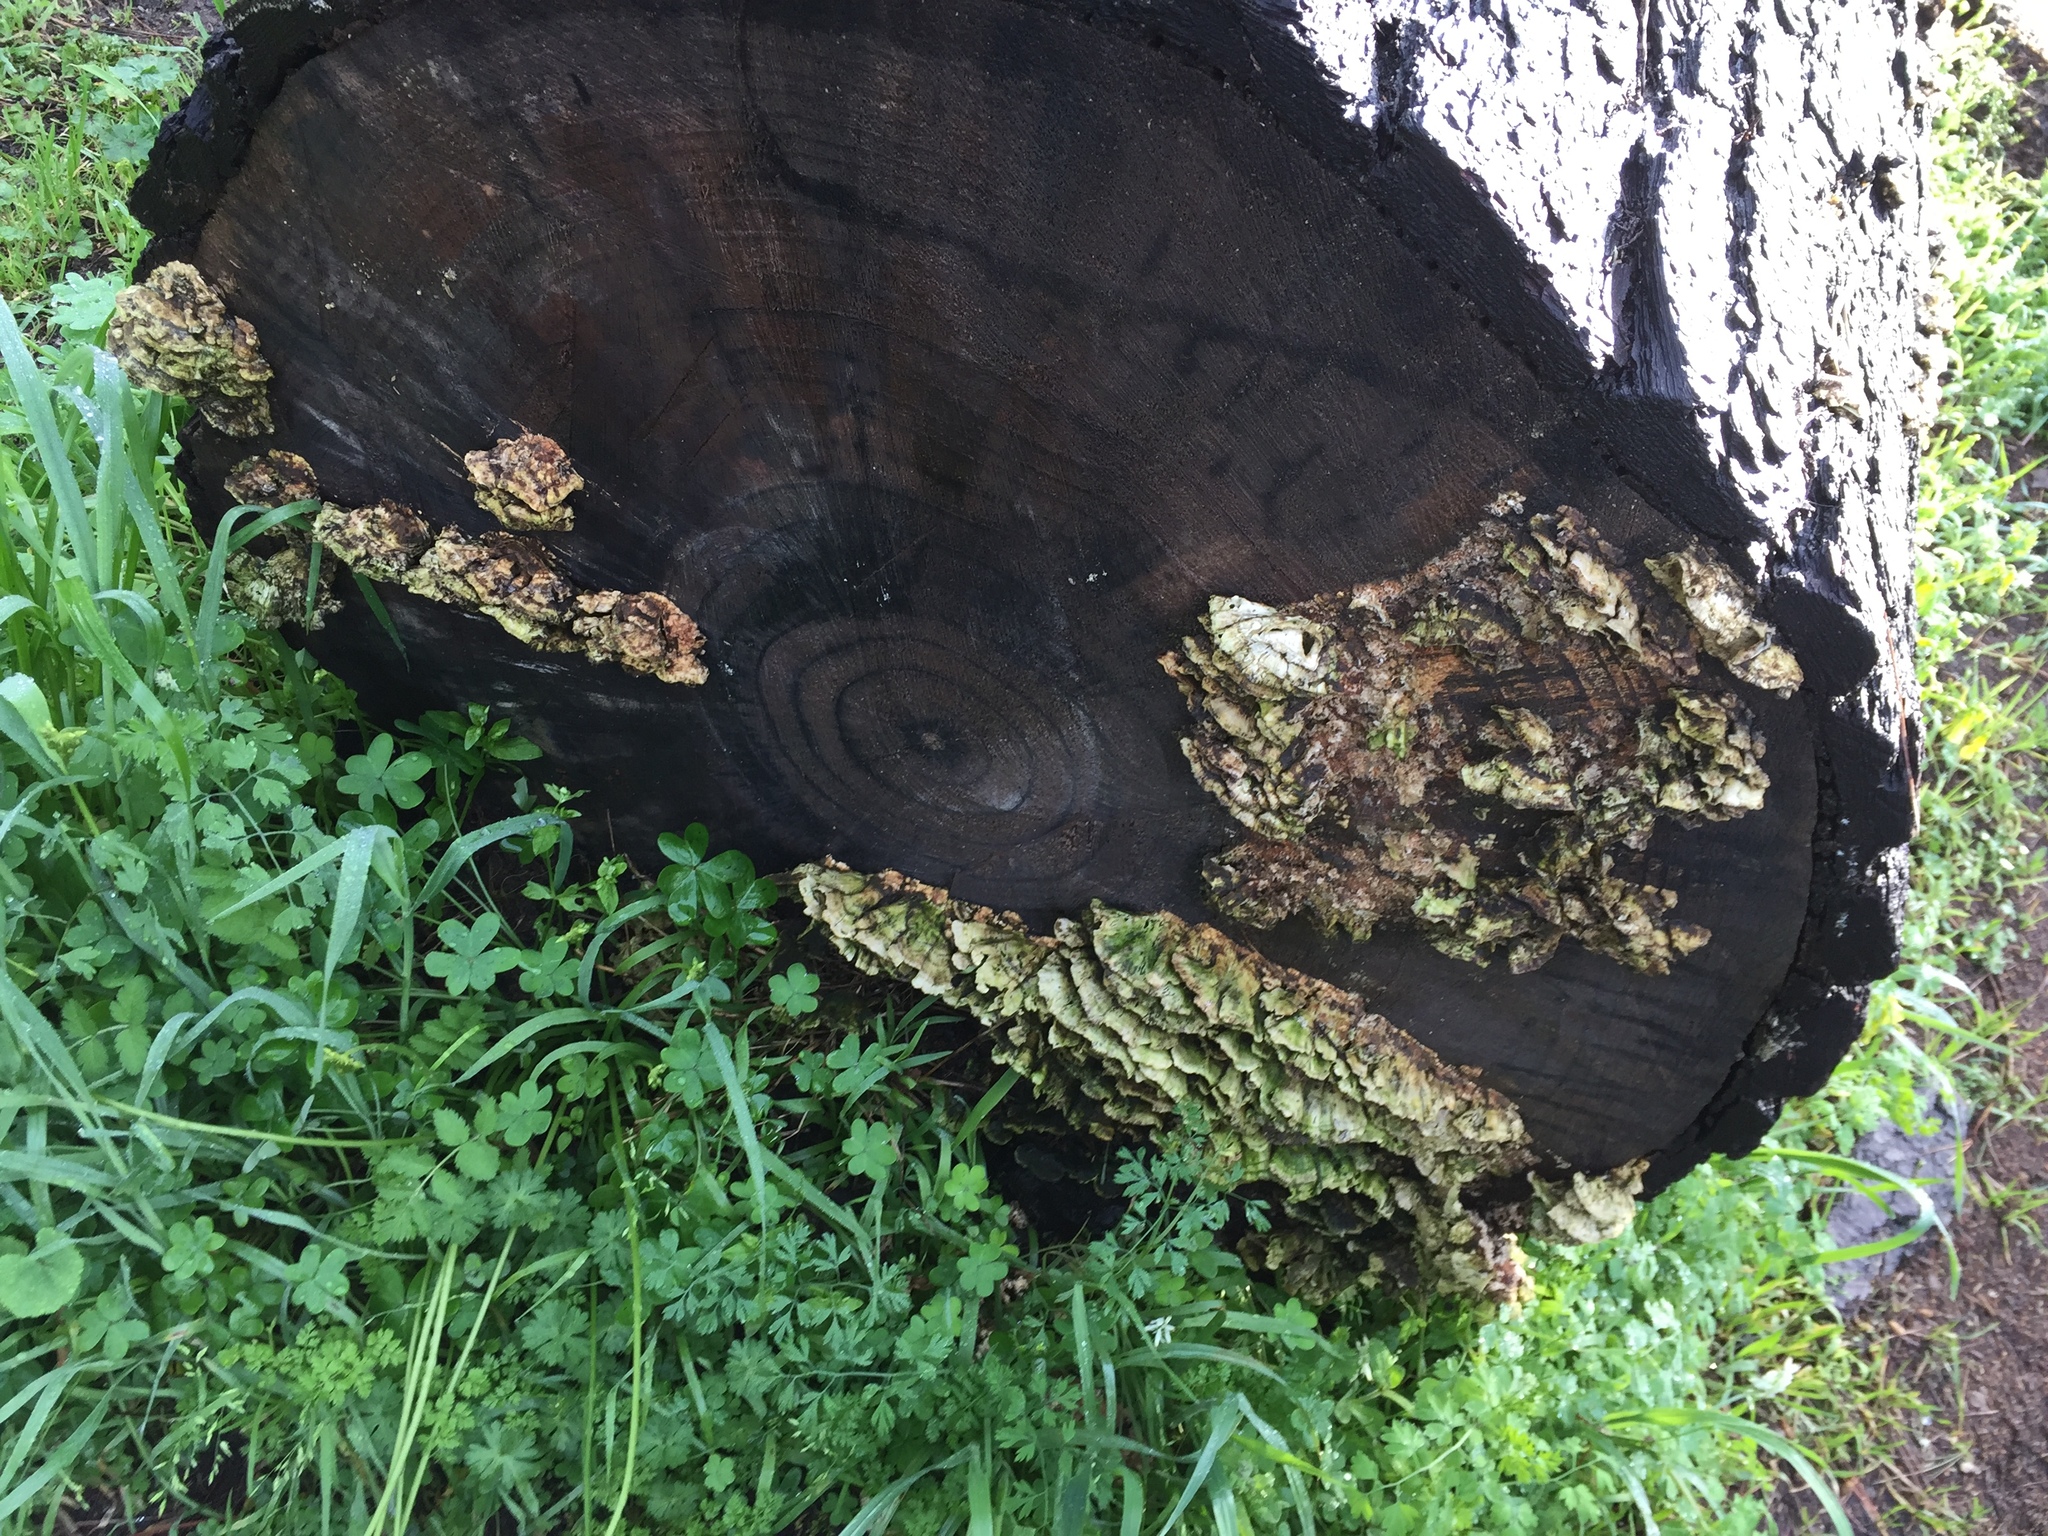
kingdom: Fungi
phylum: Basidiomycota
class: Agaricomycetes
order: Hymenochaetales
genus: Trichaptum
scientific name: Trichaptum abietinum
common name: Purplepore bracket
